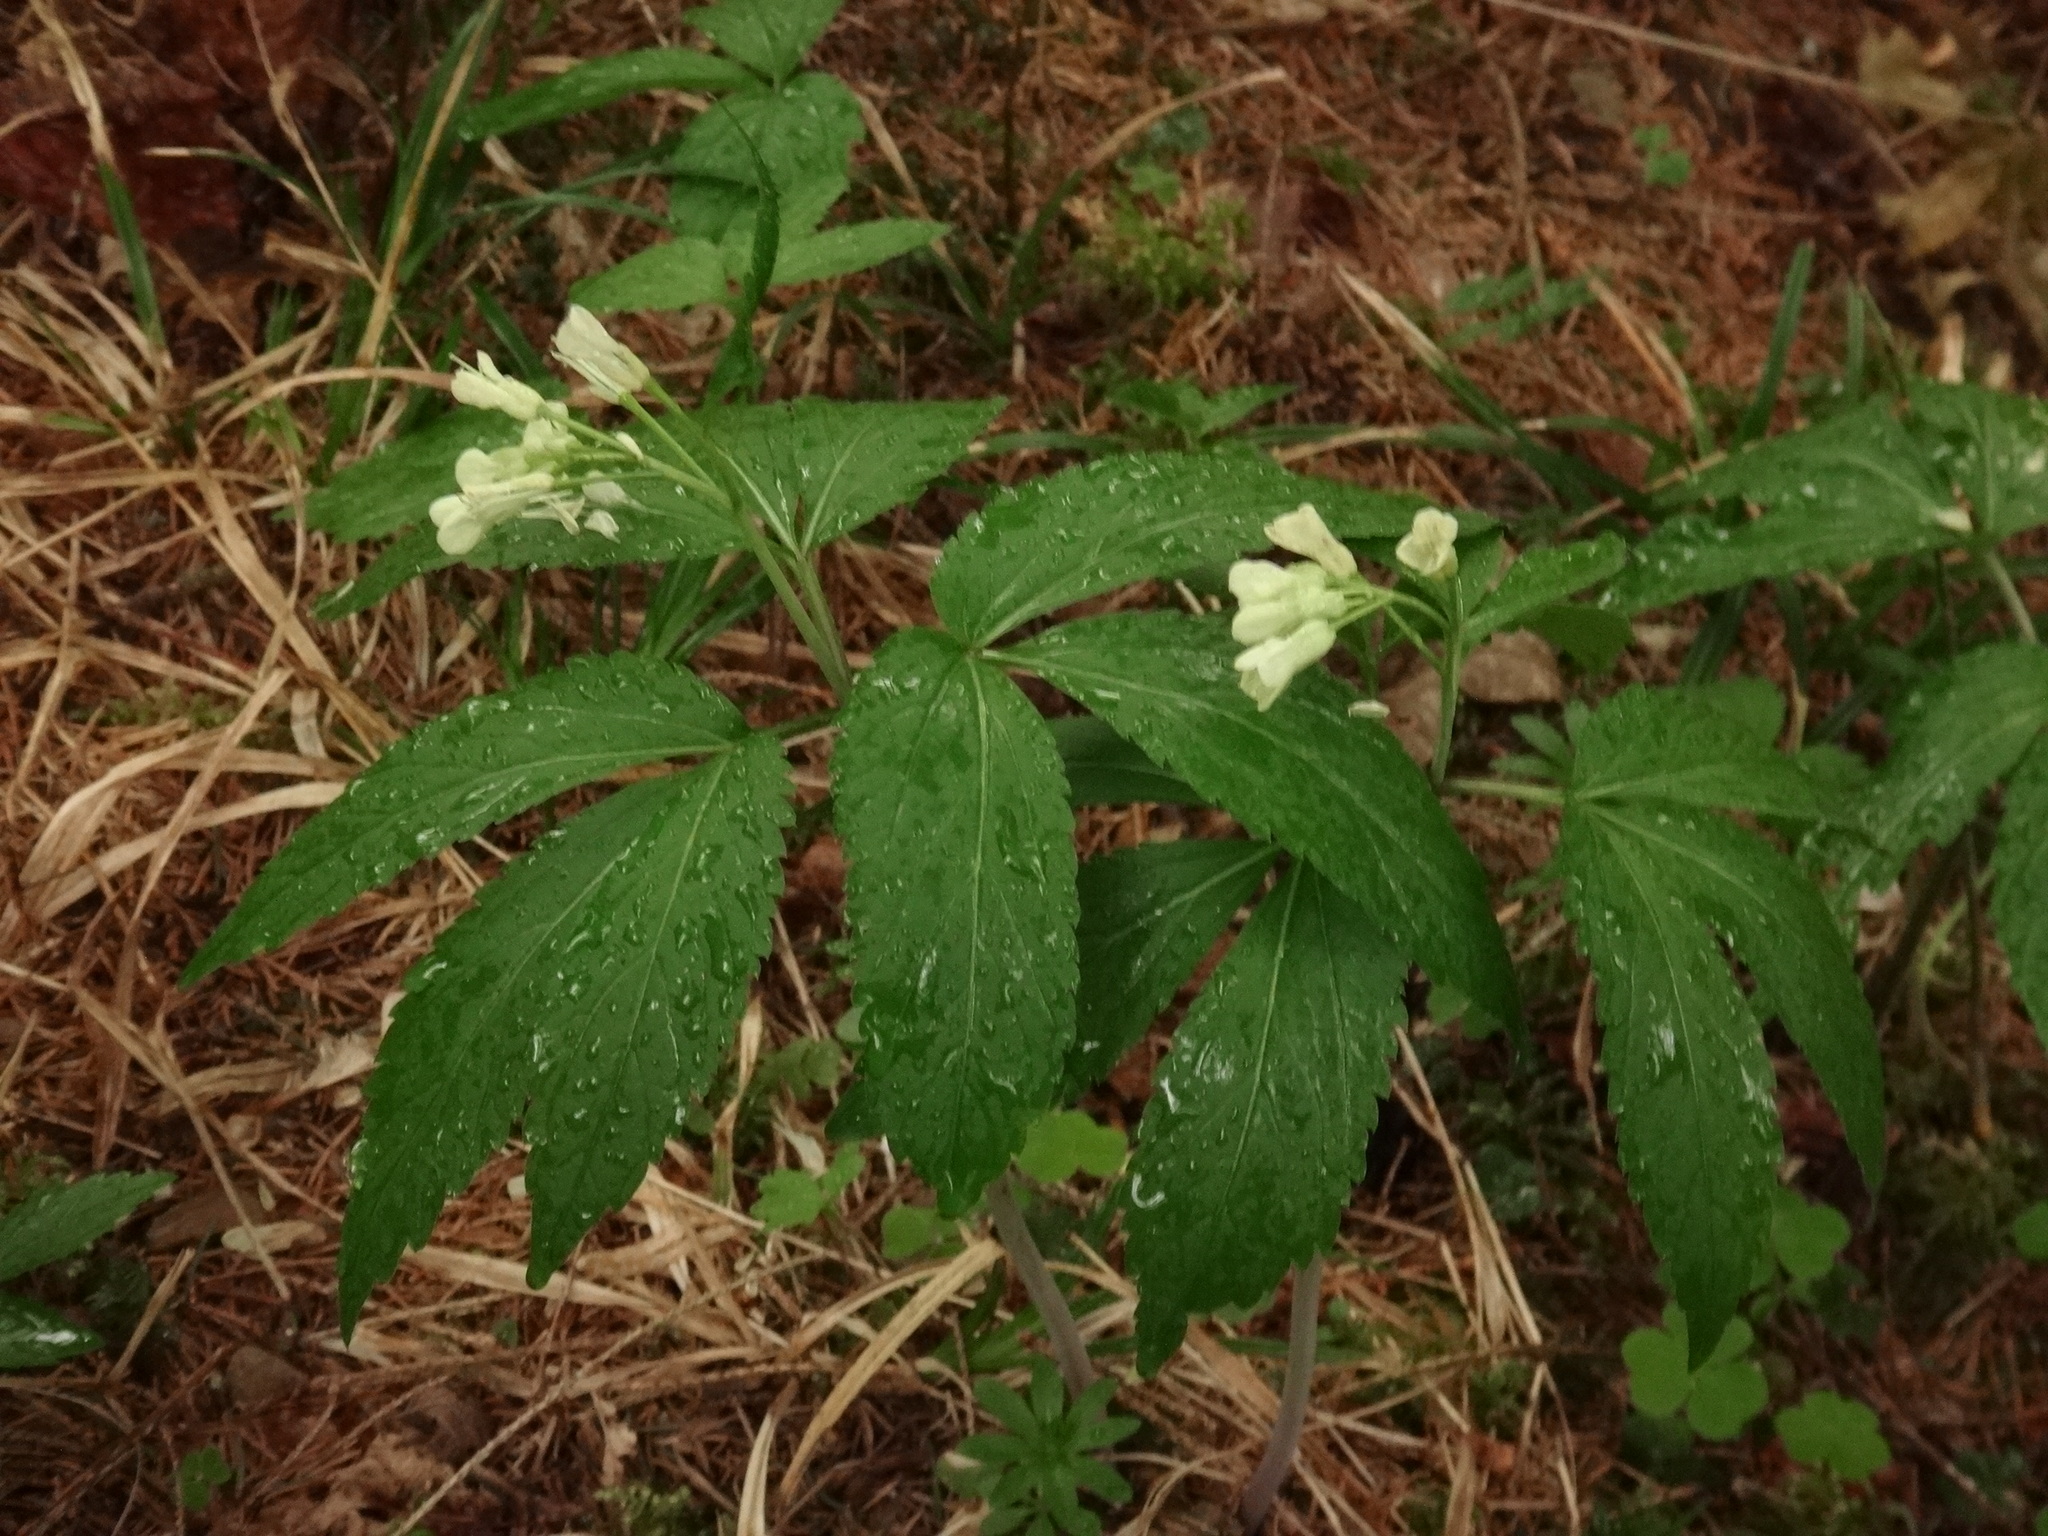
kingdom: Plantae
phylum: Tracheophyta
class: Magnoliopsida
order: Brassicales
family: Brassicaceae
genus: Cardamine
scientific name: Cardamine enneaphyllos
